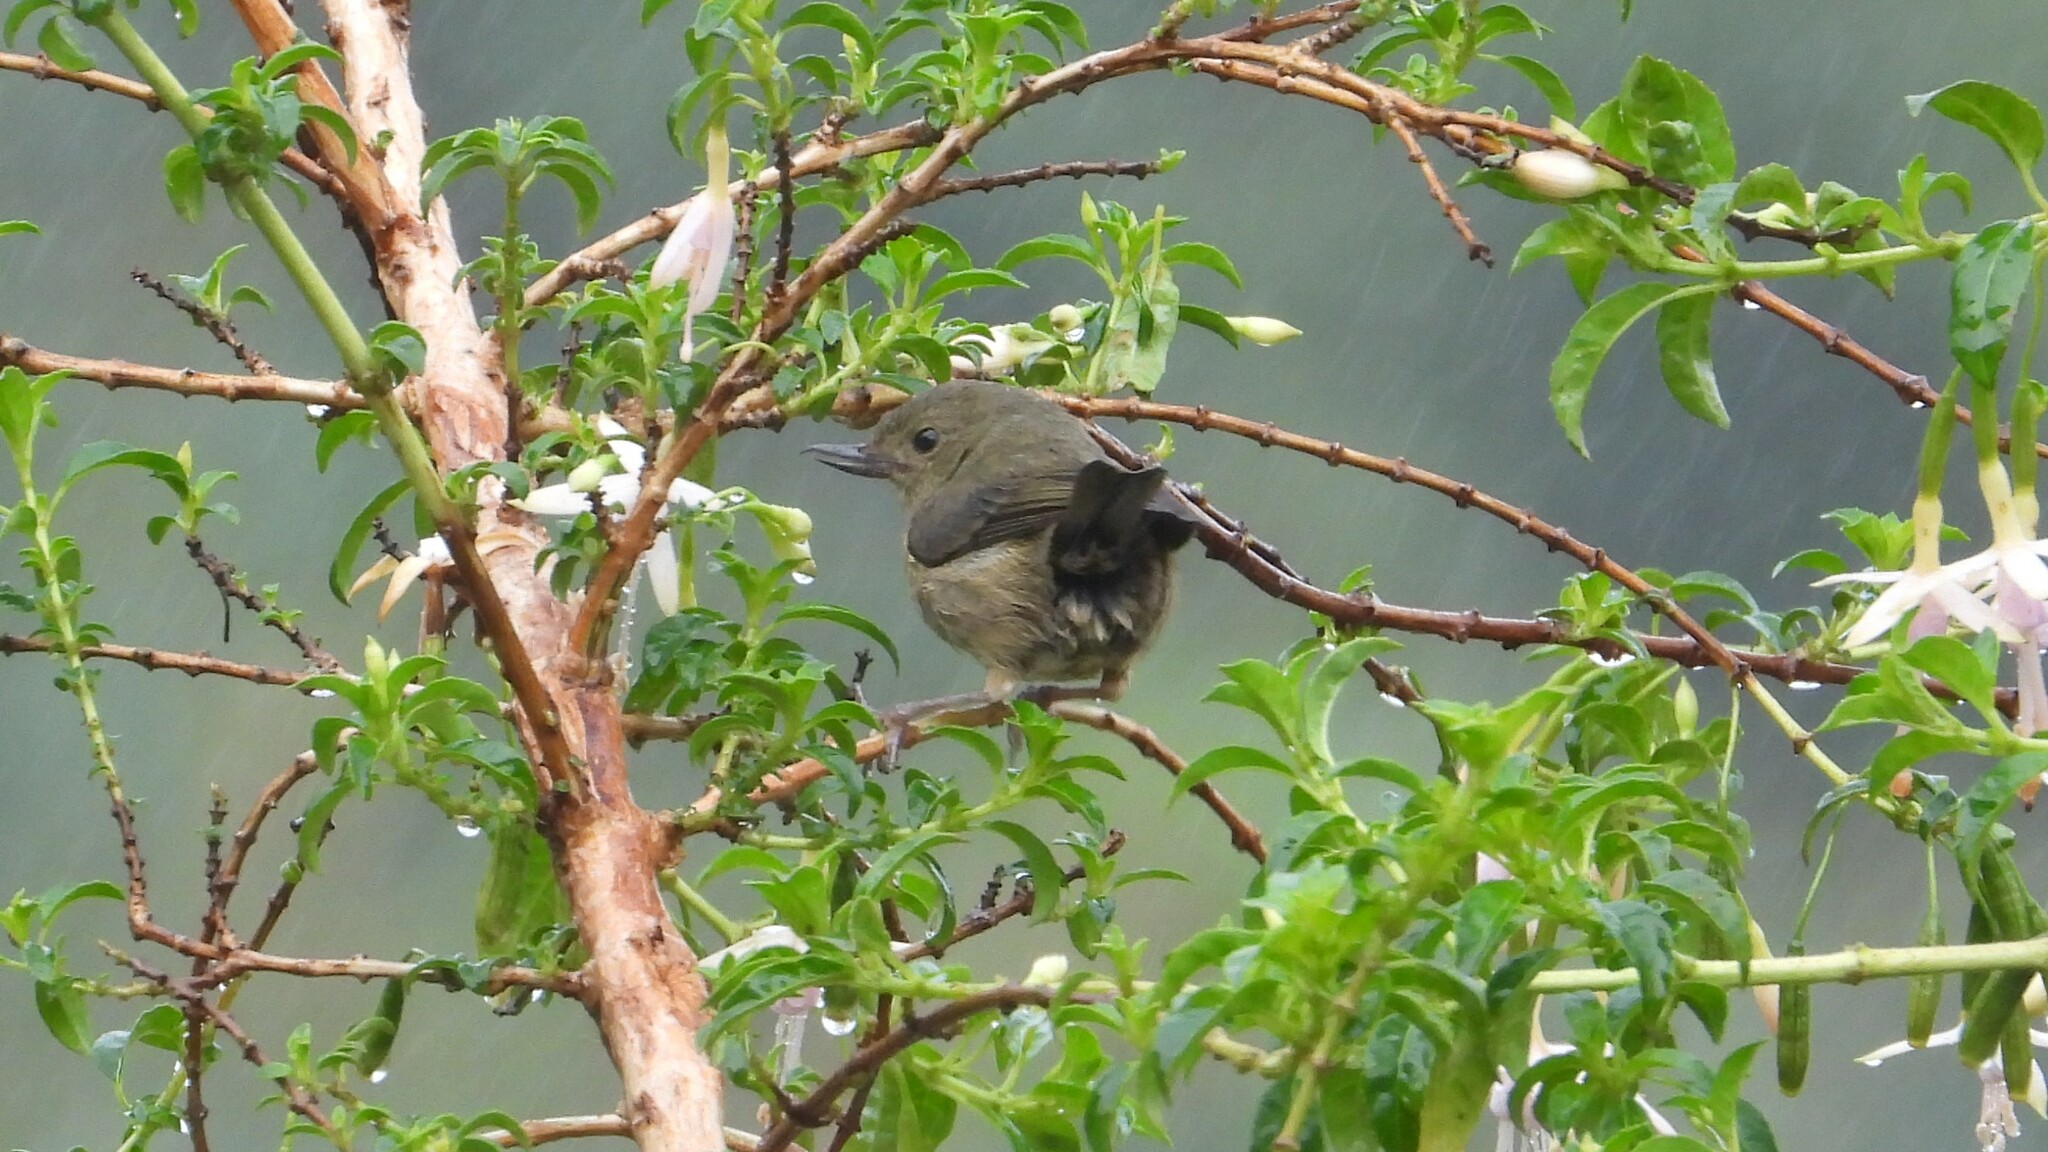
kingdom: Animalia
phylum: Chordata
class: Aves
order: Passeriformes
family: Thraupidae
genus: Diglossa
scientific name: Diglossa plumbea
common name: Slaty flowerpiercer
